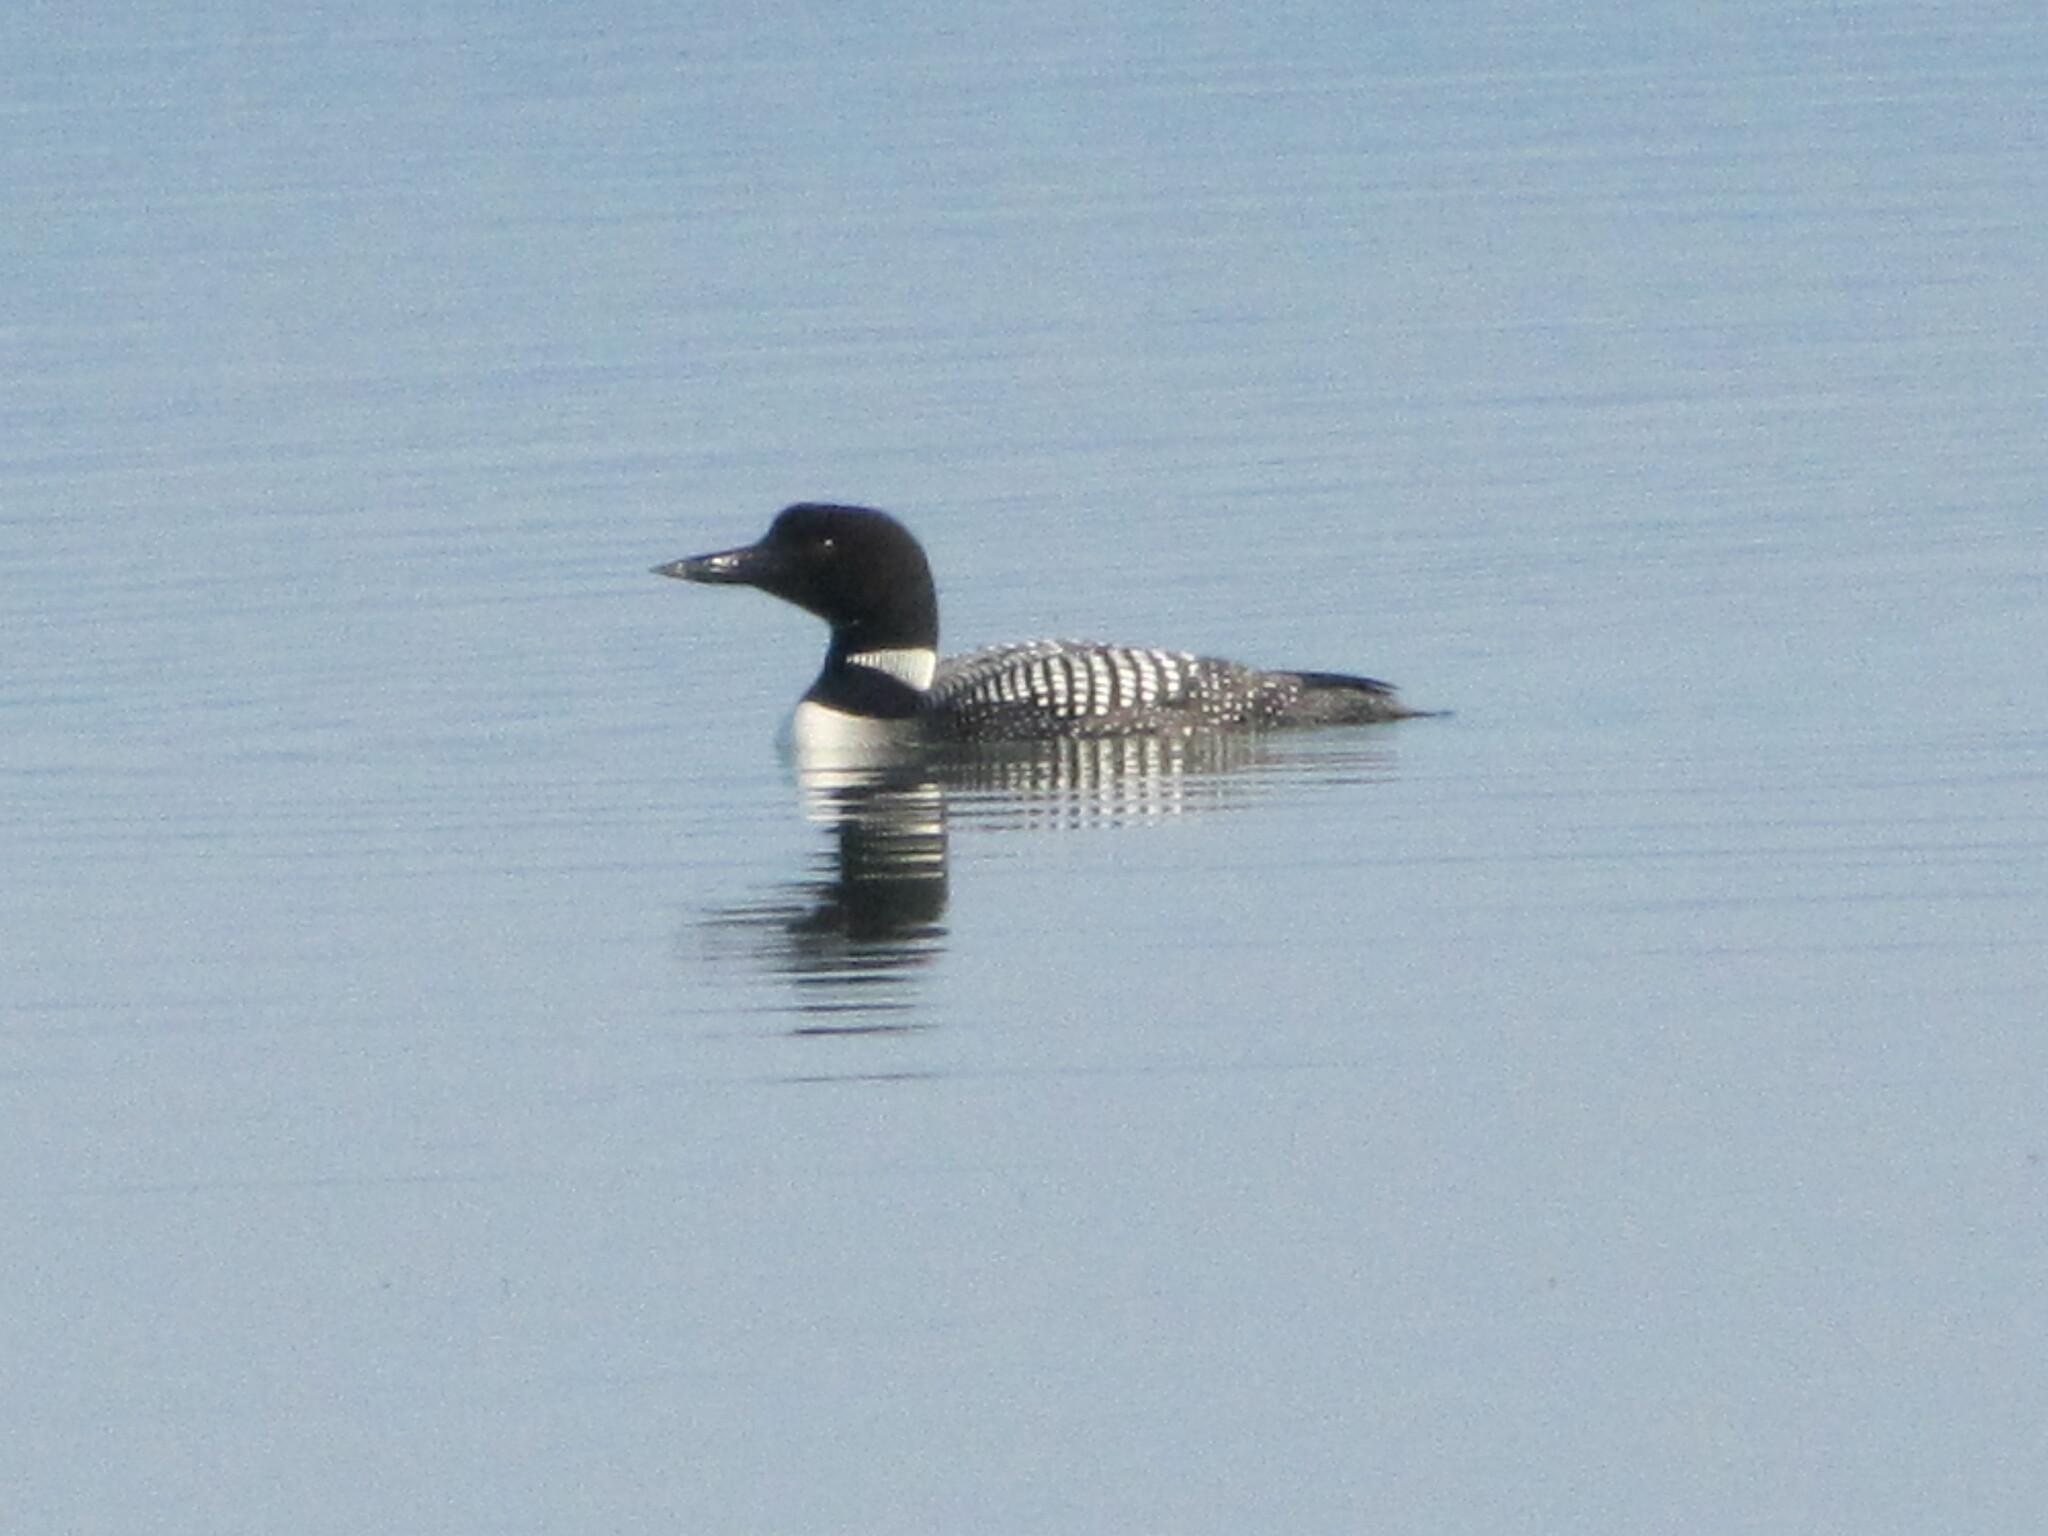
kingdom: Animalia
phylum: Chordata
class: Aves
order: Gaviiformes
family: Gaviidae
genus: Gavia
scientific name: Gavia immer
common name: Common loon
